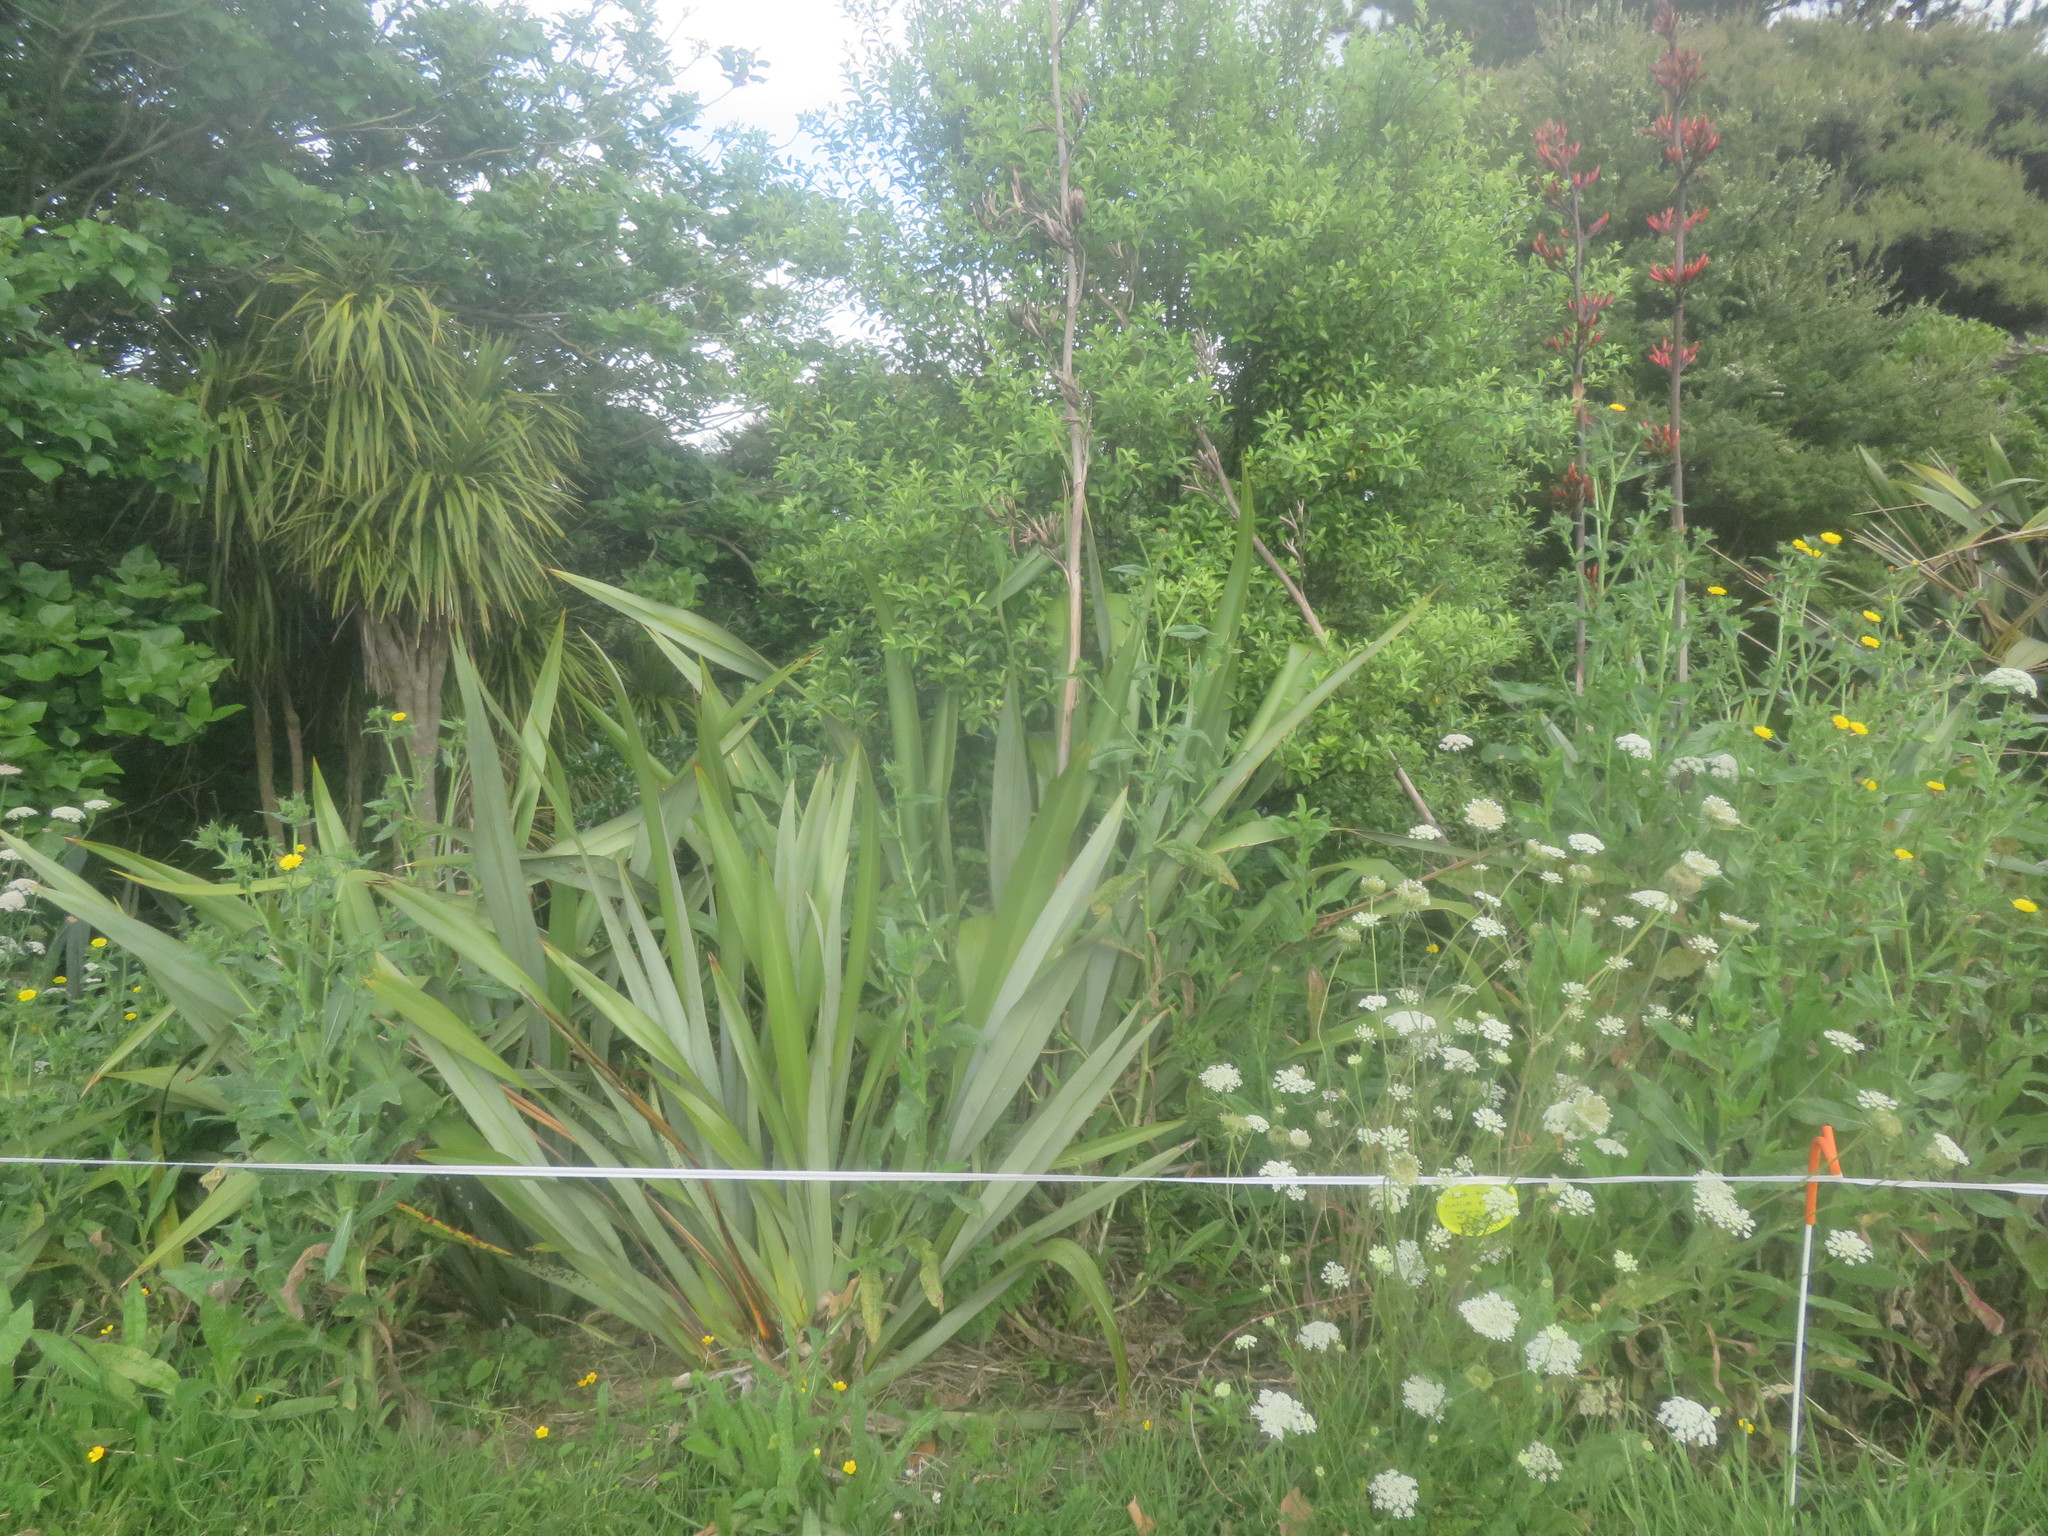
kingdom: Plantae
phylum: Tracheophyta
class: Magnoliopsida
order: Apiales
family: Pittosporaceae
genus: Pittosporum
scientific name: Pittosporum tenuifolium
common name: Kohuhu
